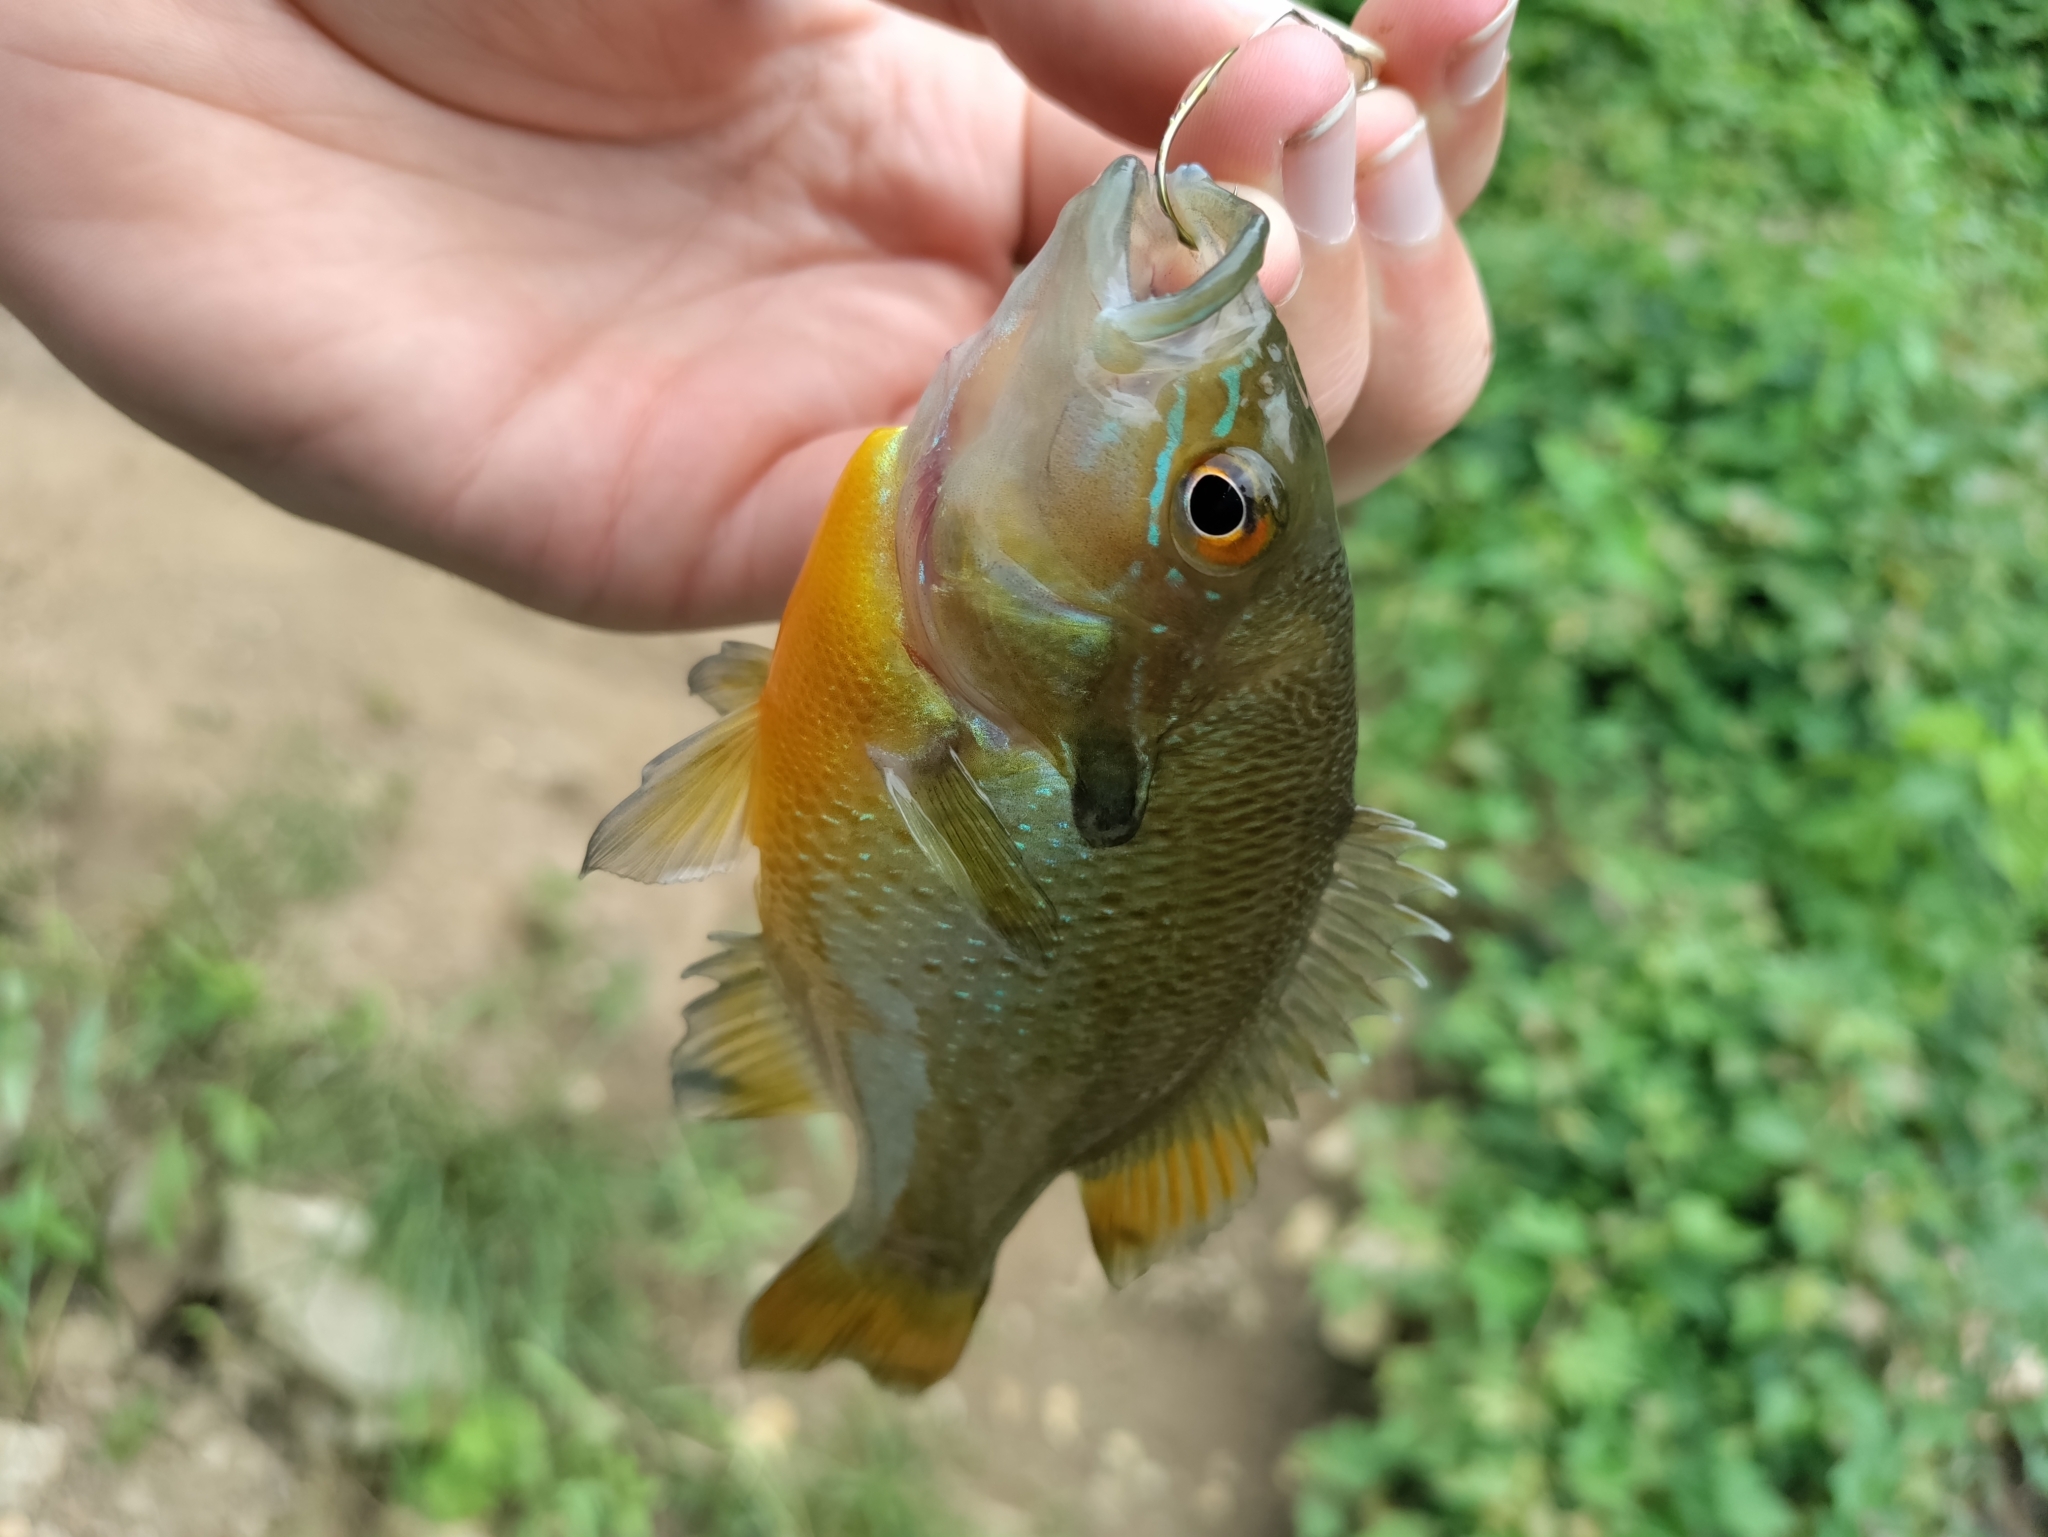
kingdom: Animalia
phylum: Chordata
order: Perciformes
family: Centrarchidae
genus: Lepomis
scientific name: Lepomis auritus
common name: Redbreast sunfish
